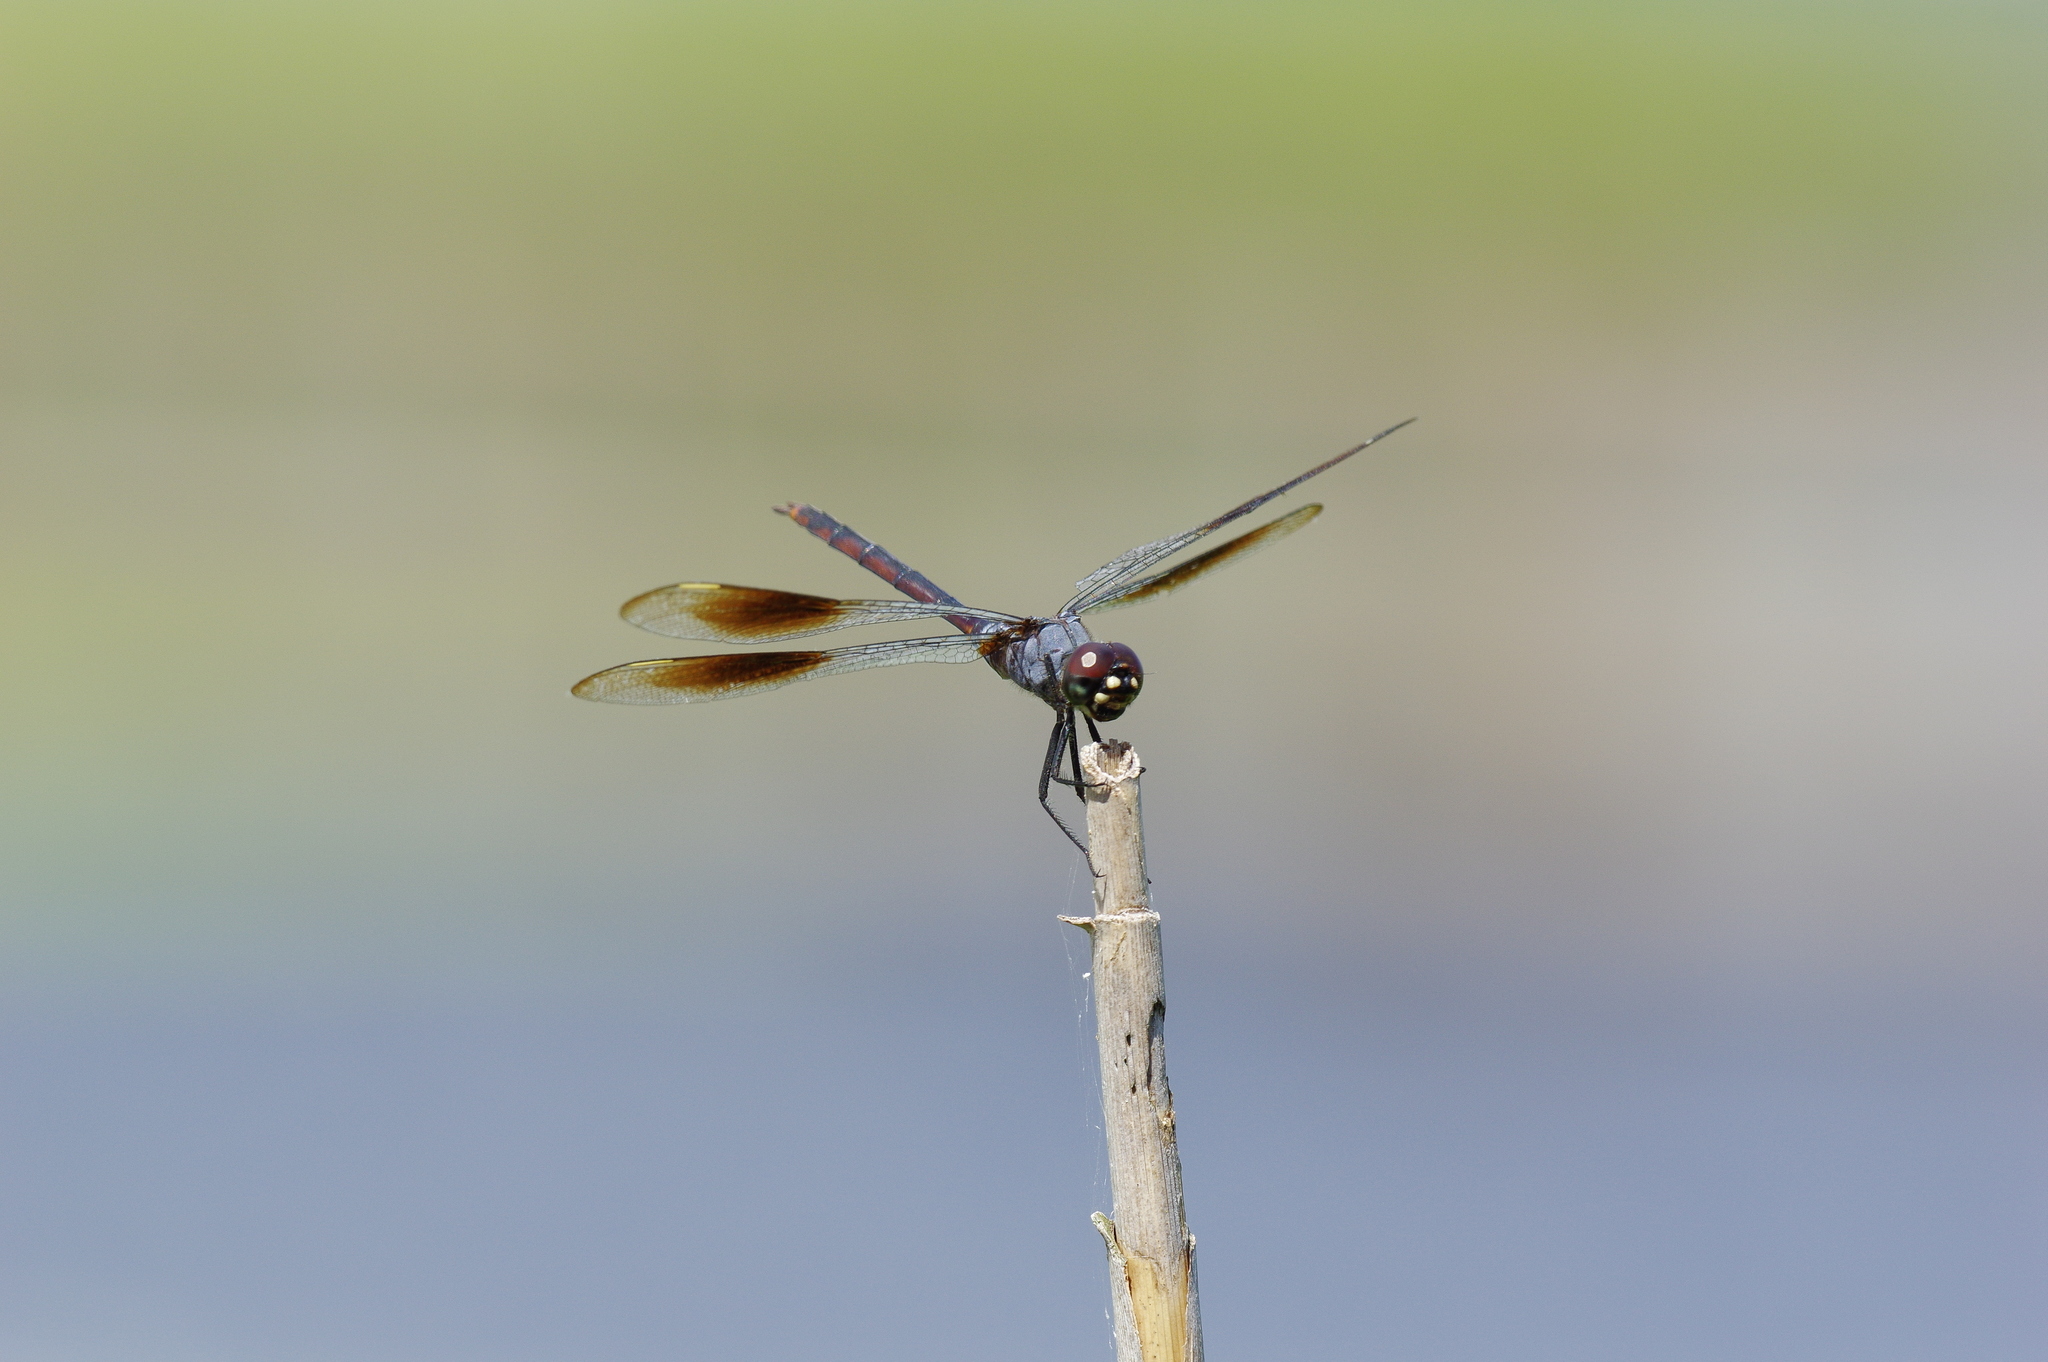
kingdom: Animalia
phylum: Arthropoda
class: Insecta
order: Odonata
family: Libellulidae
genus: Brachymesia
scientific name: Brachymesia gravida
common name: Four-spotted pennant
